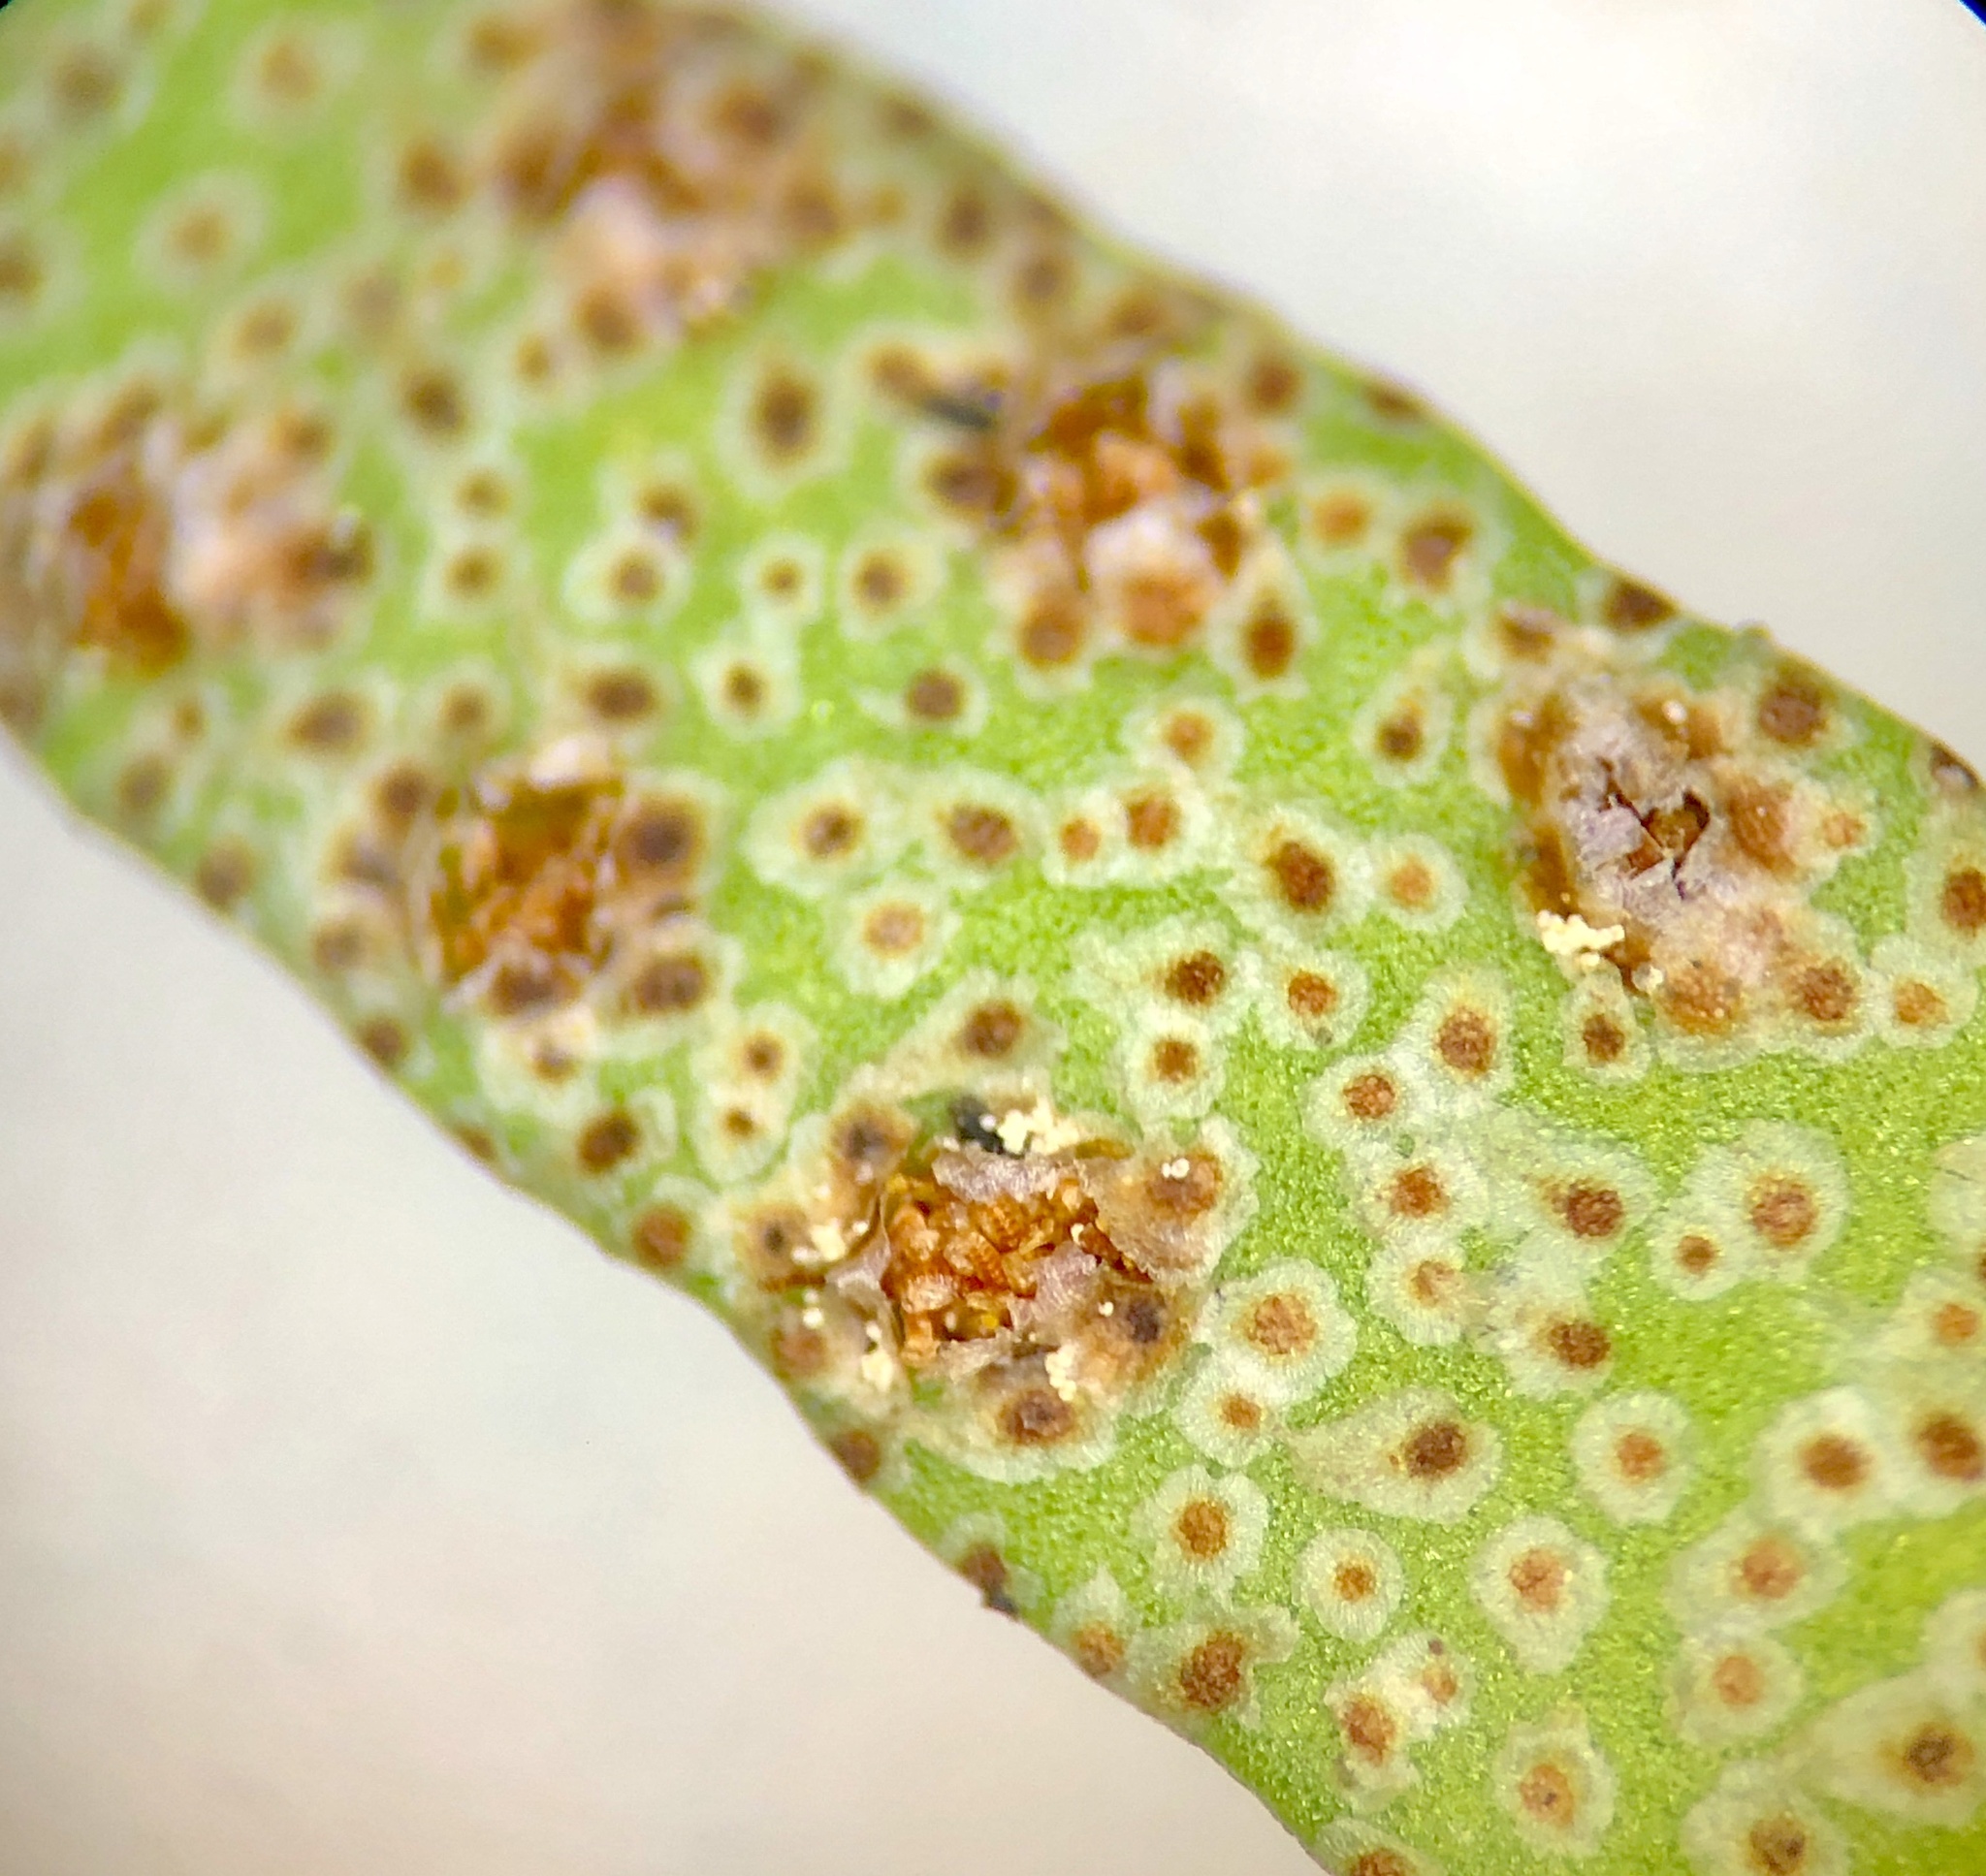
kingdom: Plantae
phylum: Tracheophyta
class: Polypodiopsida
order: Polypodiales
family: Polypodiaceae
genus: Pleopeltis
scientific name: Pleopeltis michauxiana
